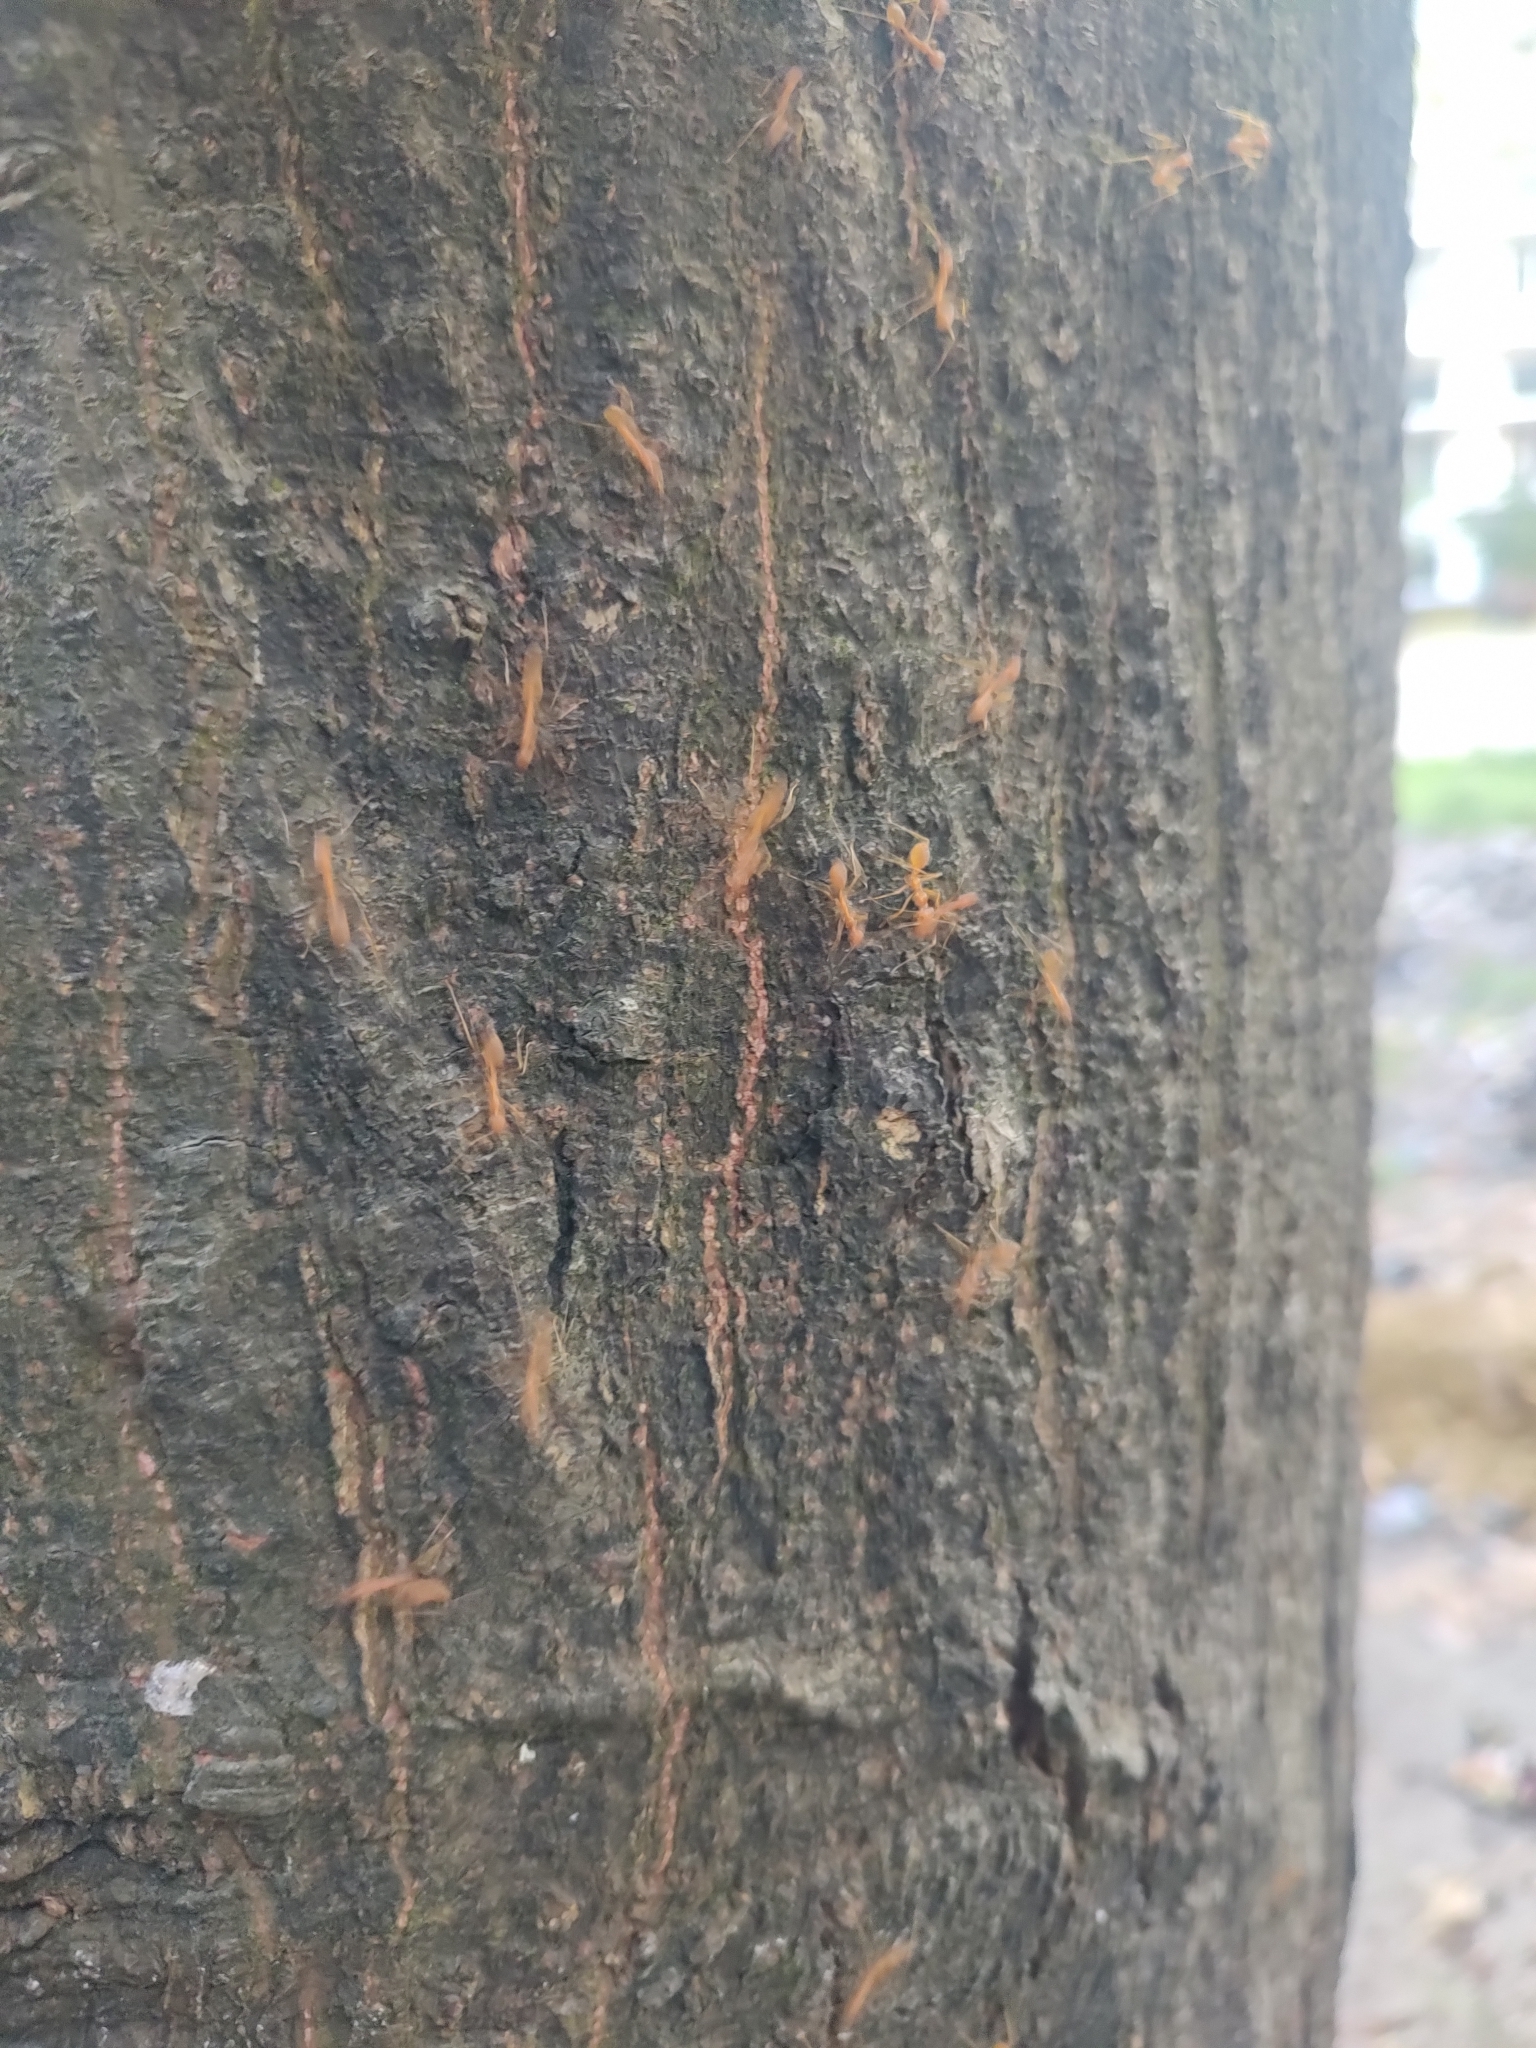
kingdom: Animalia
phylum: Arthropoda
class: Insecta
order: Hymenoptera
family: Formicidae
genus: Oecophylla
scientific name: Oecophylla smaragdina
